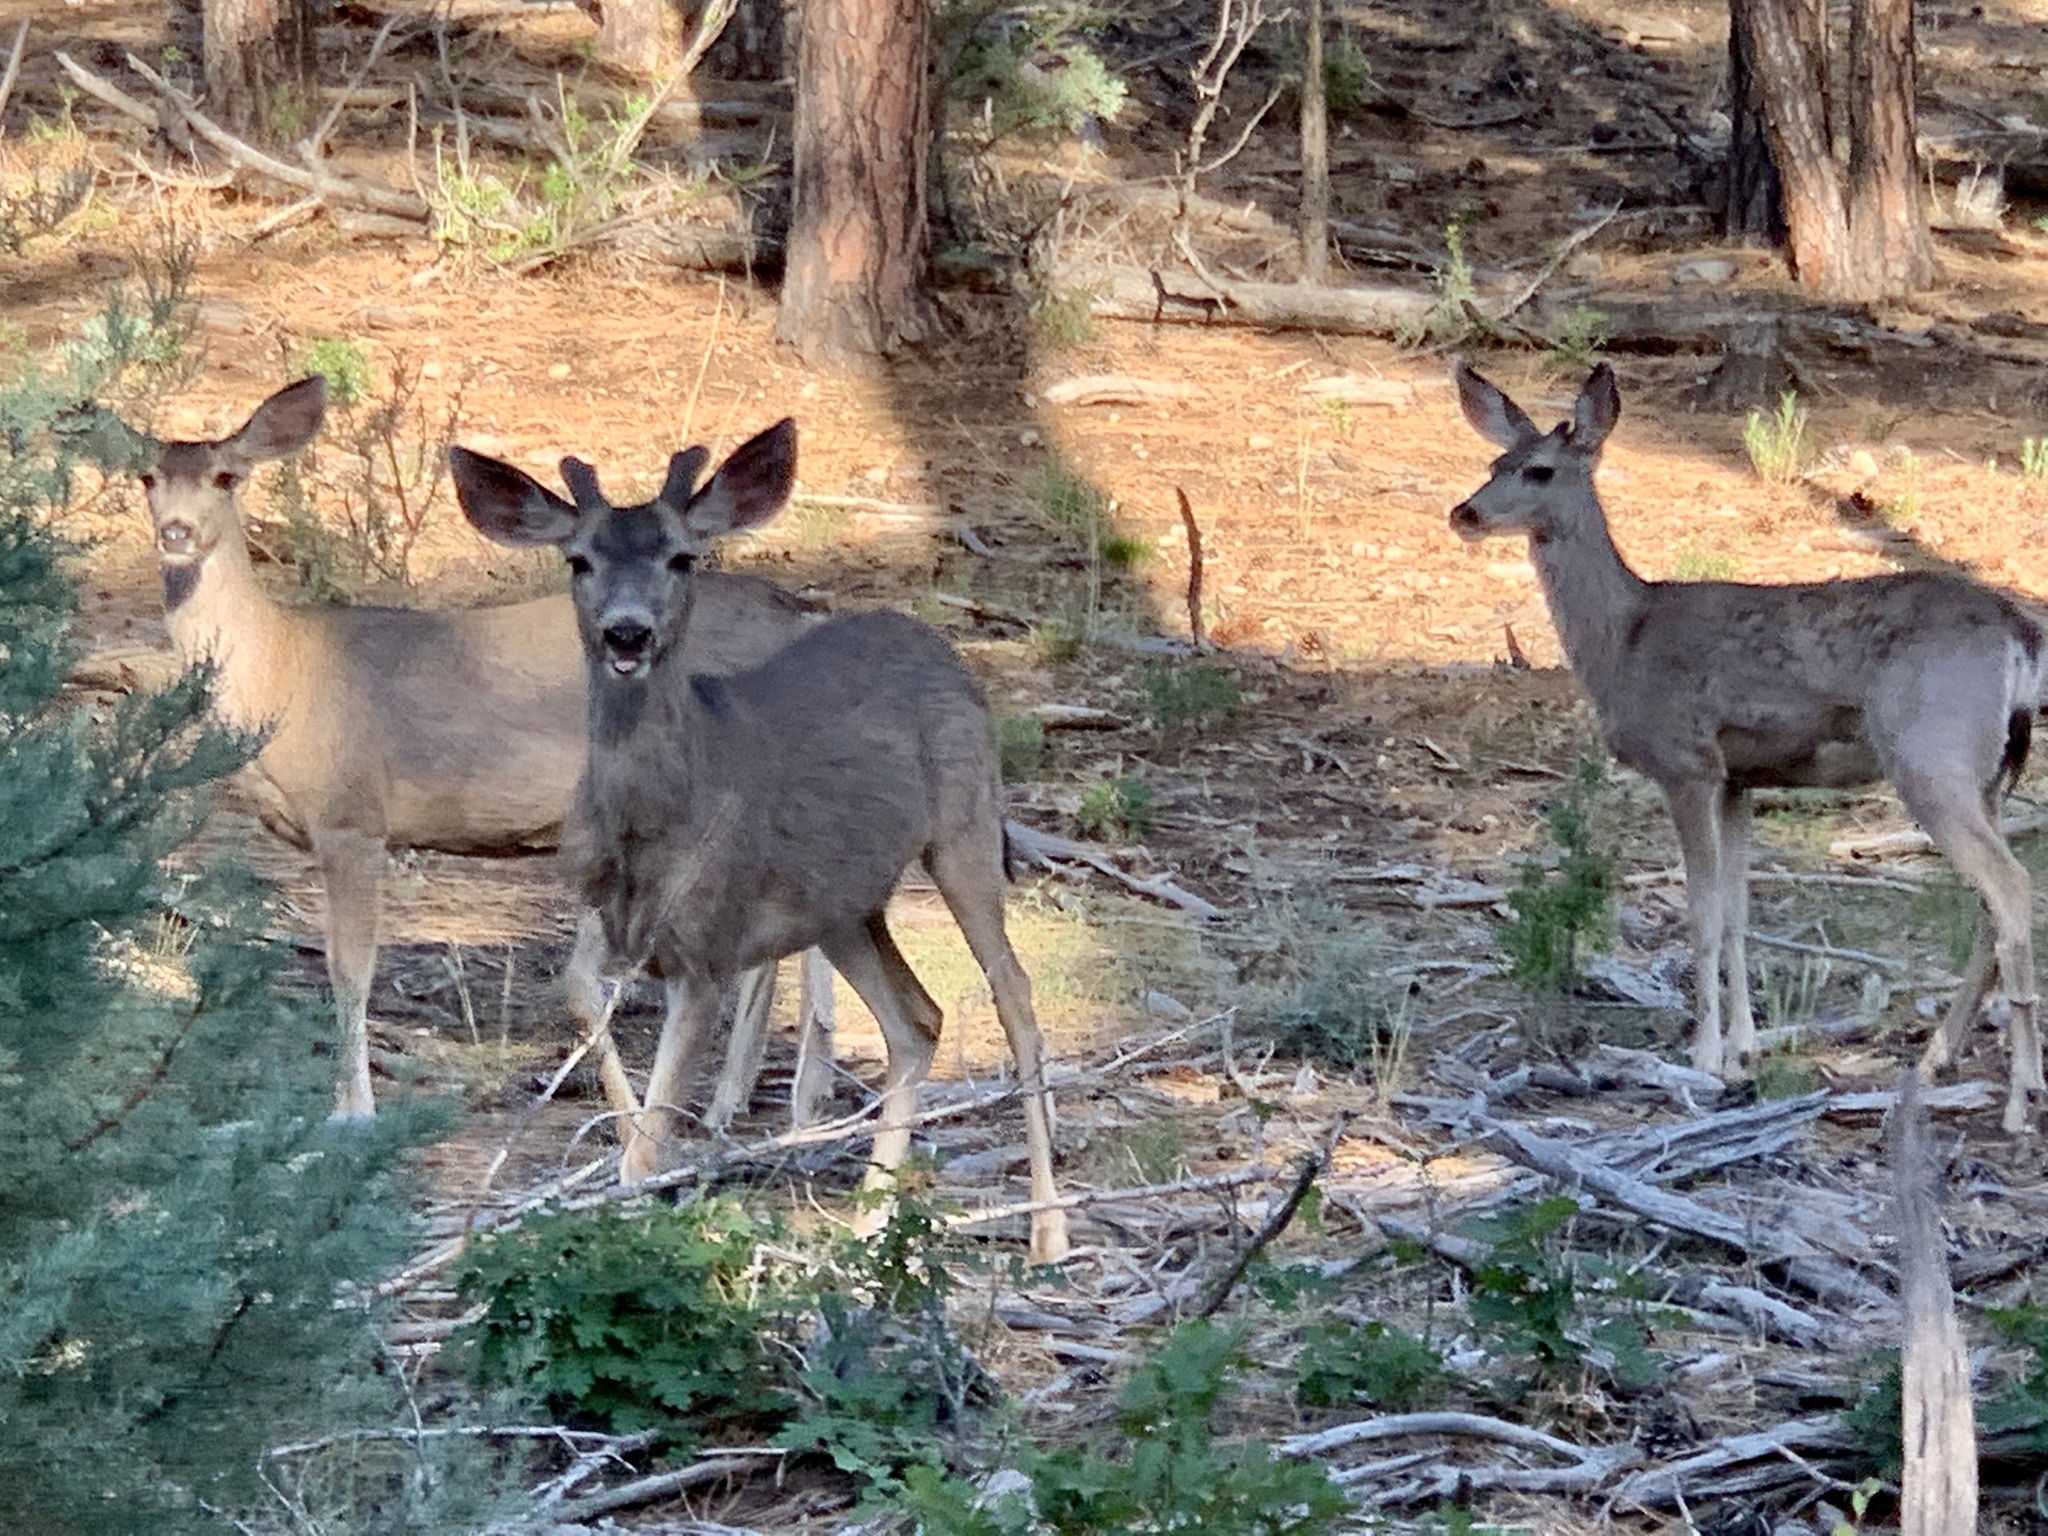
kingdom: Animalia
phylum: Chordata
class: Mammalia
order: Artiodactyla
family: Cervidae
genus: Odocoileus
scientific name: Odocoileus hemionus
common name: Mule deer
